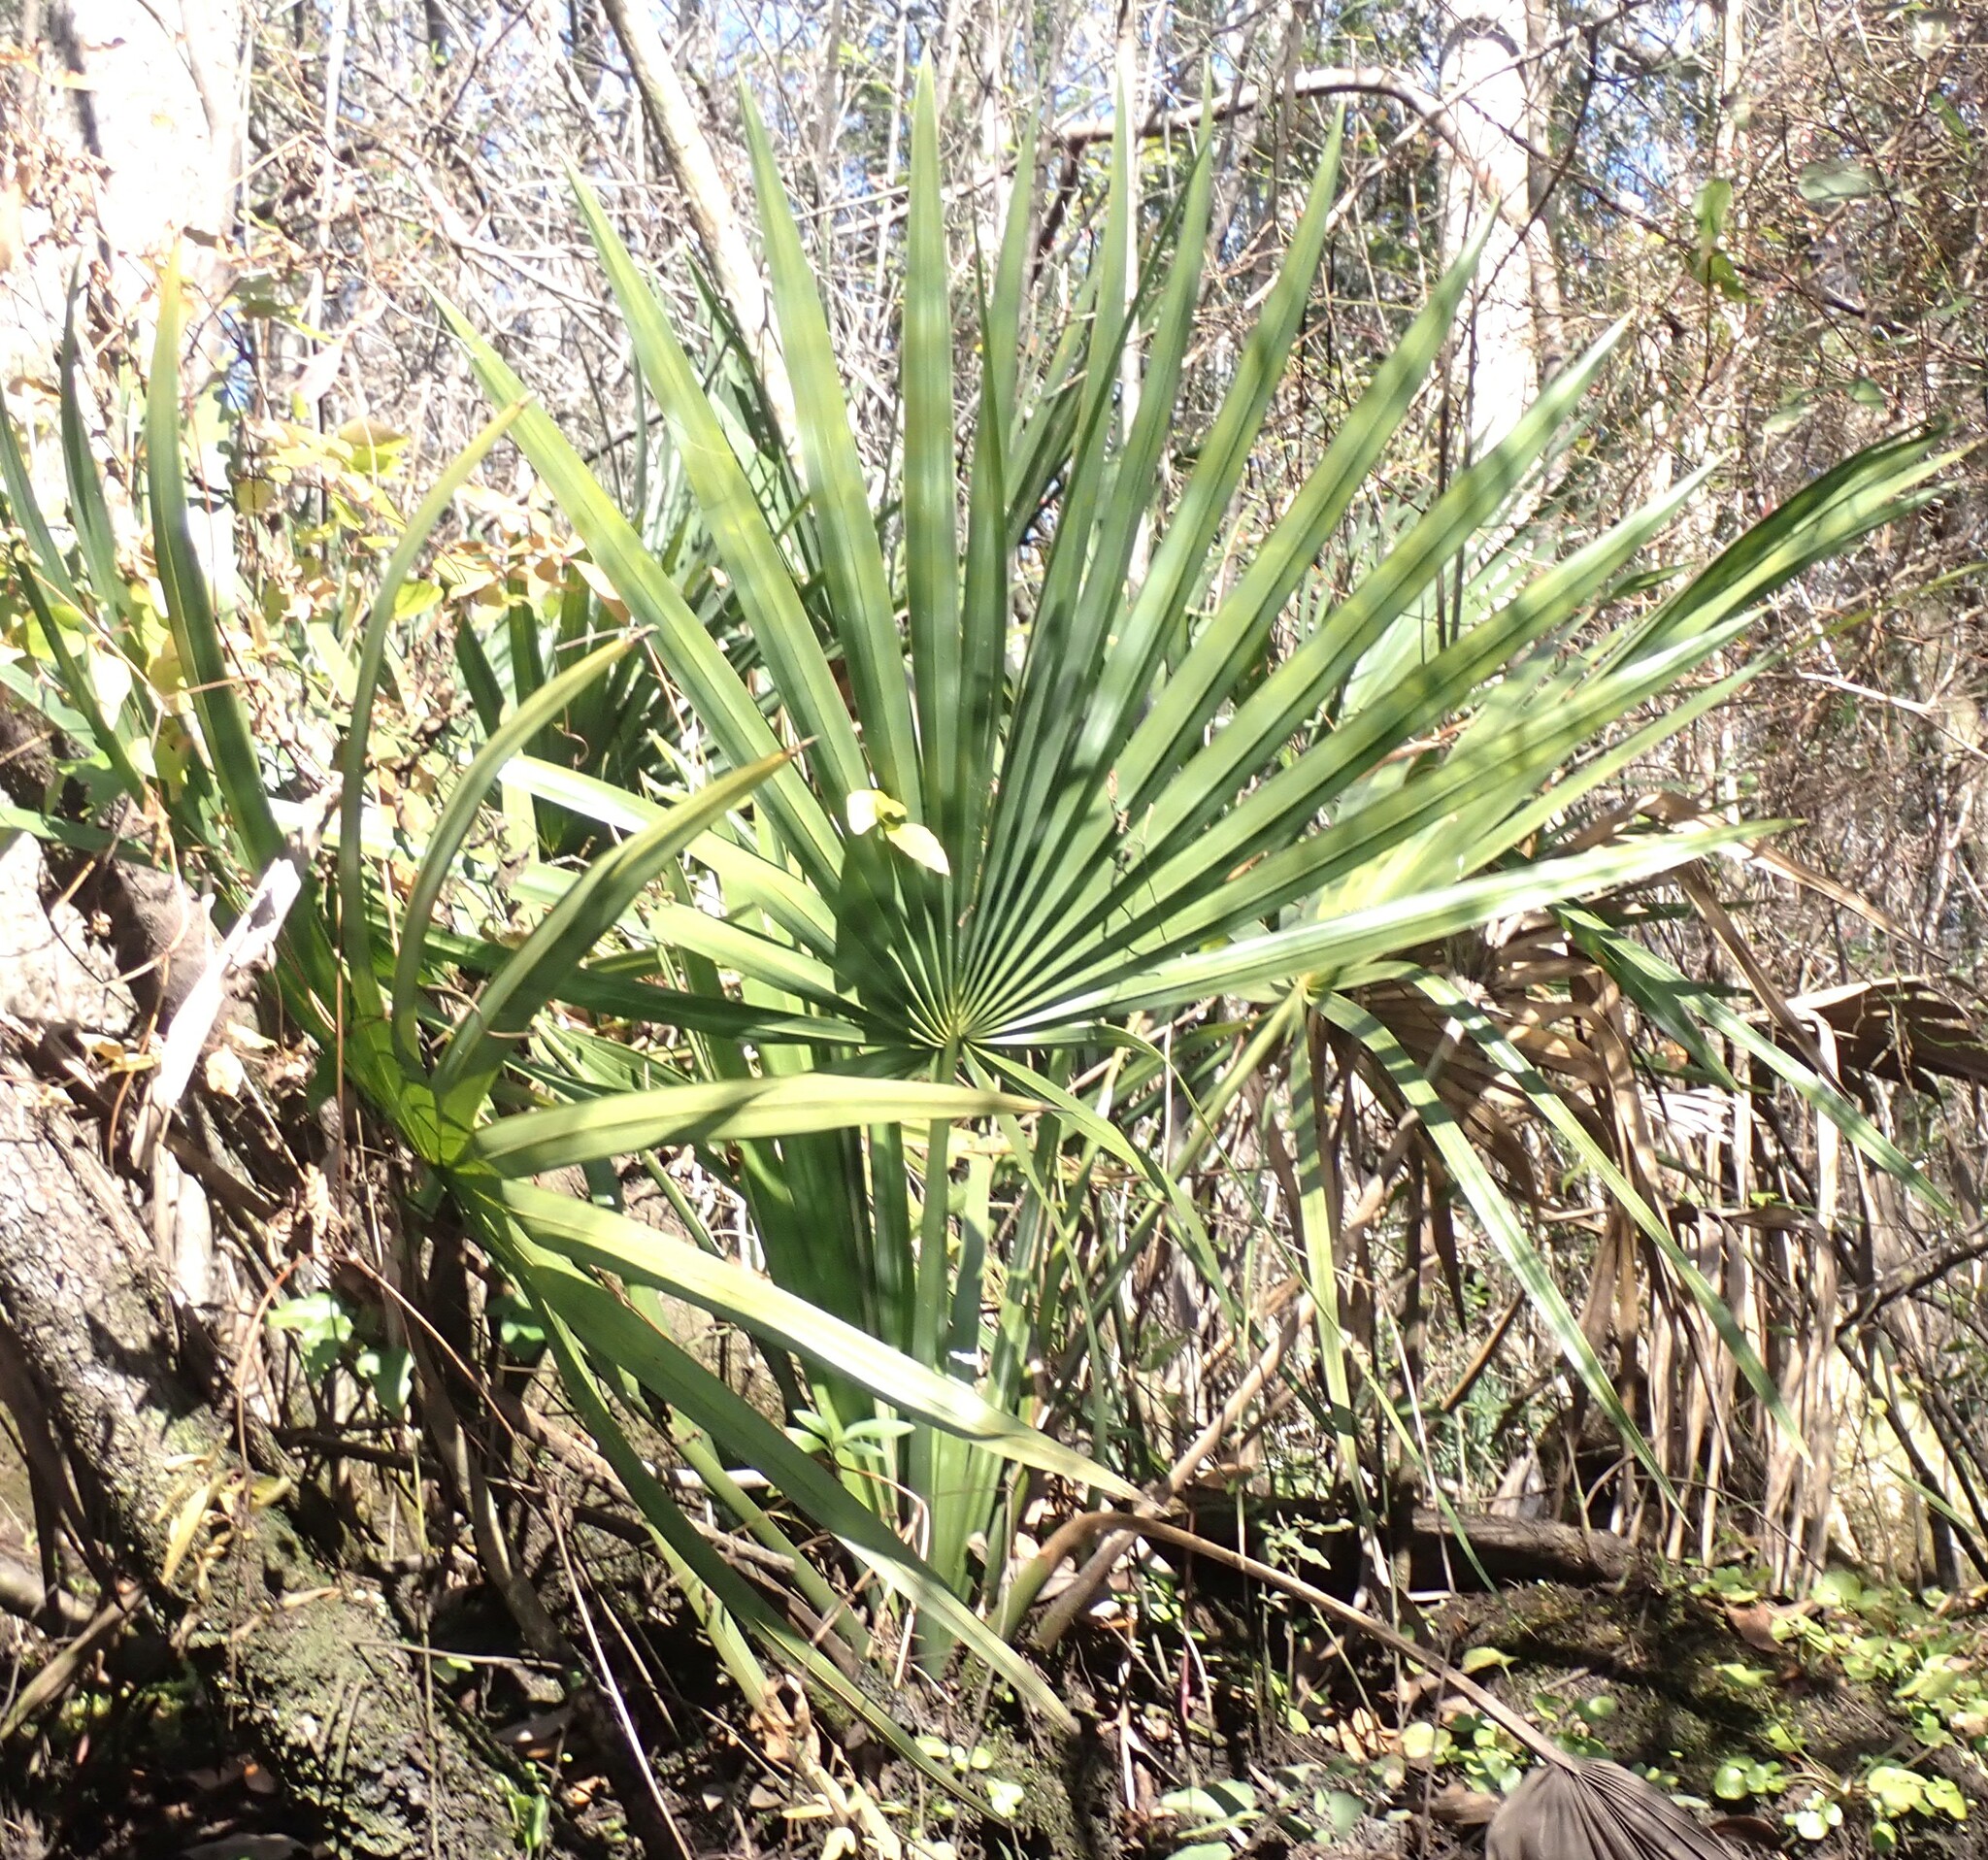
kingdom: Plantae
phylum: Tracheophyta
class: Liliopsida
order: Arecales
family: Arecaceae
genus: Sabal
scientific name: Sabal minor
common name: Dwarf palmetto
